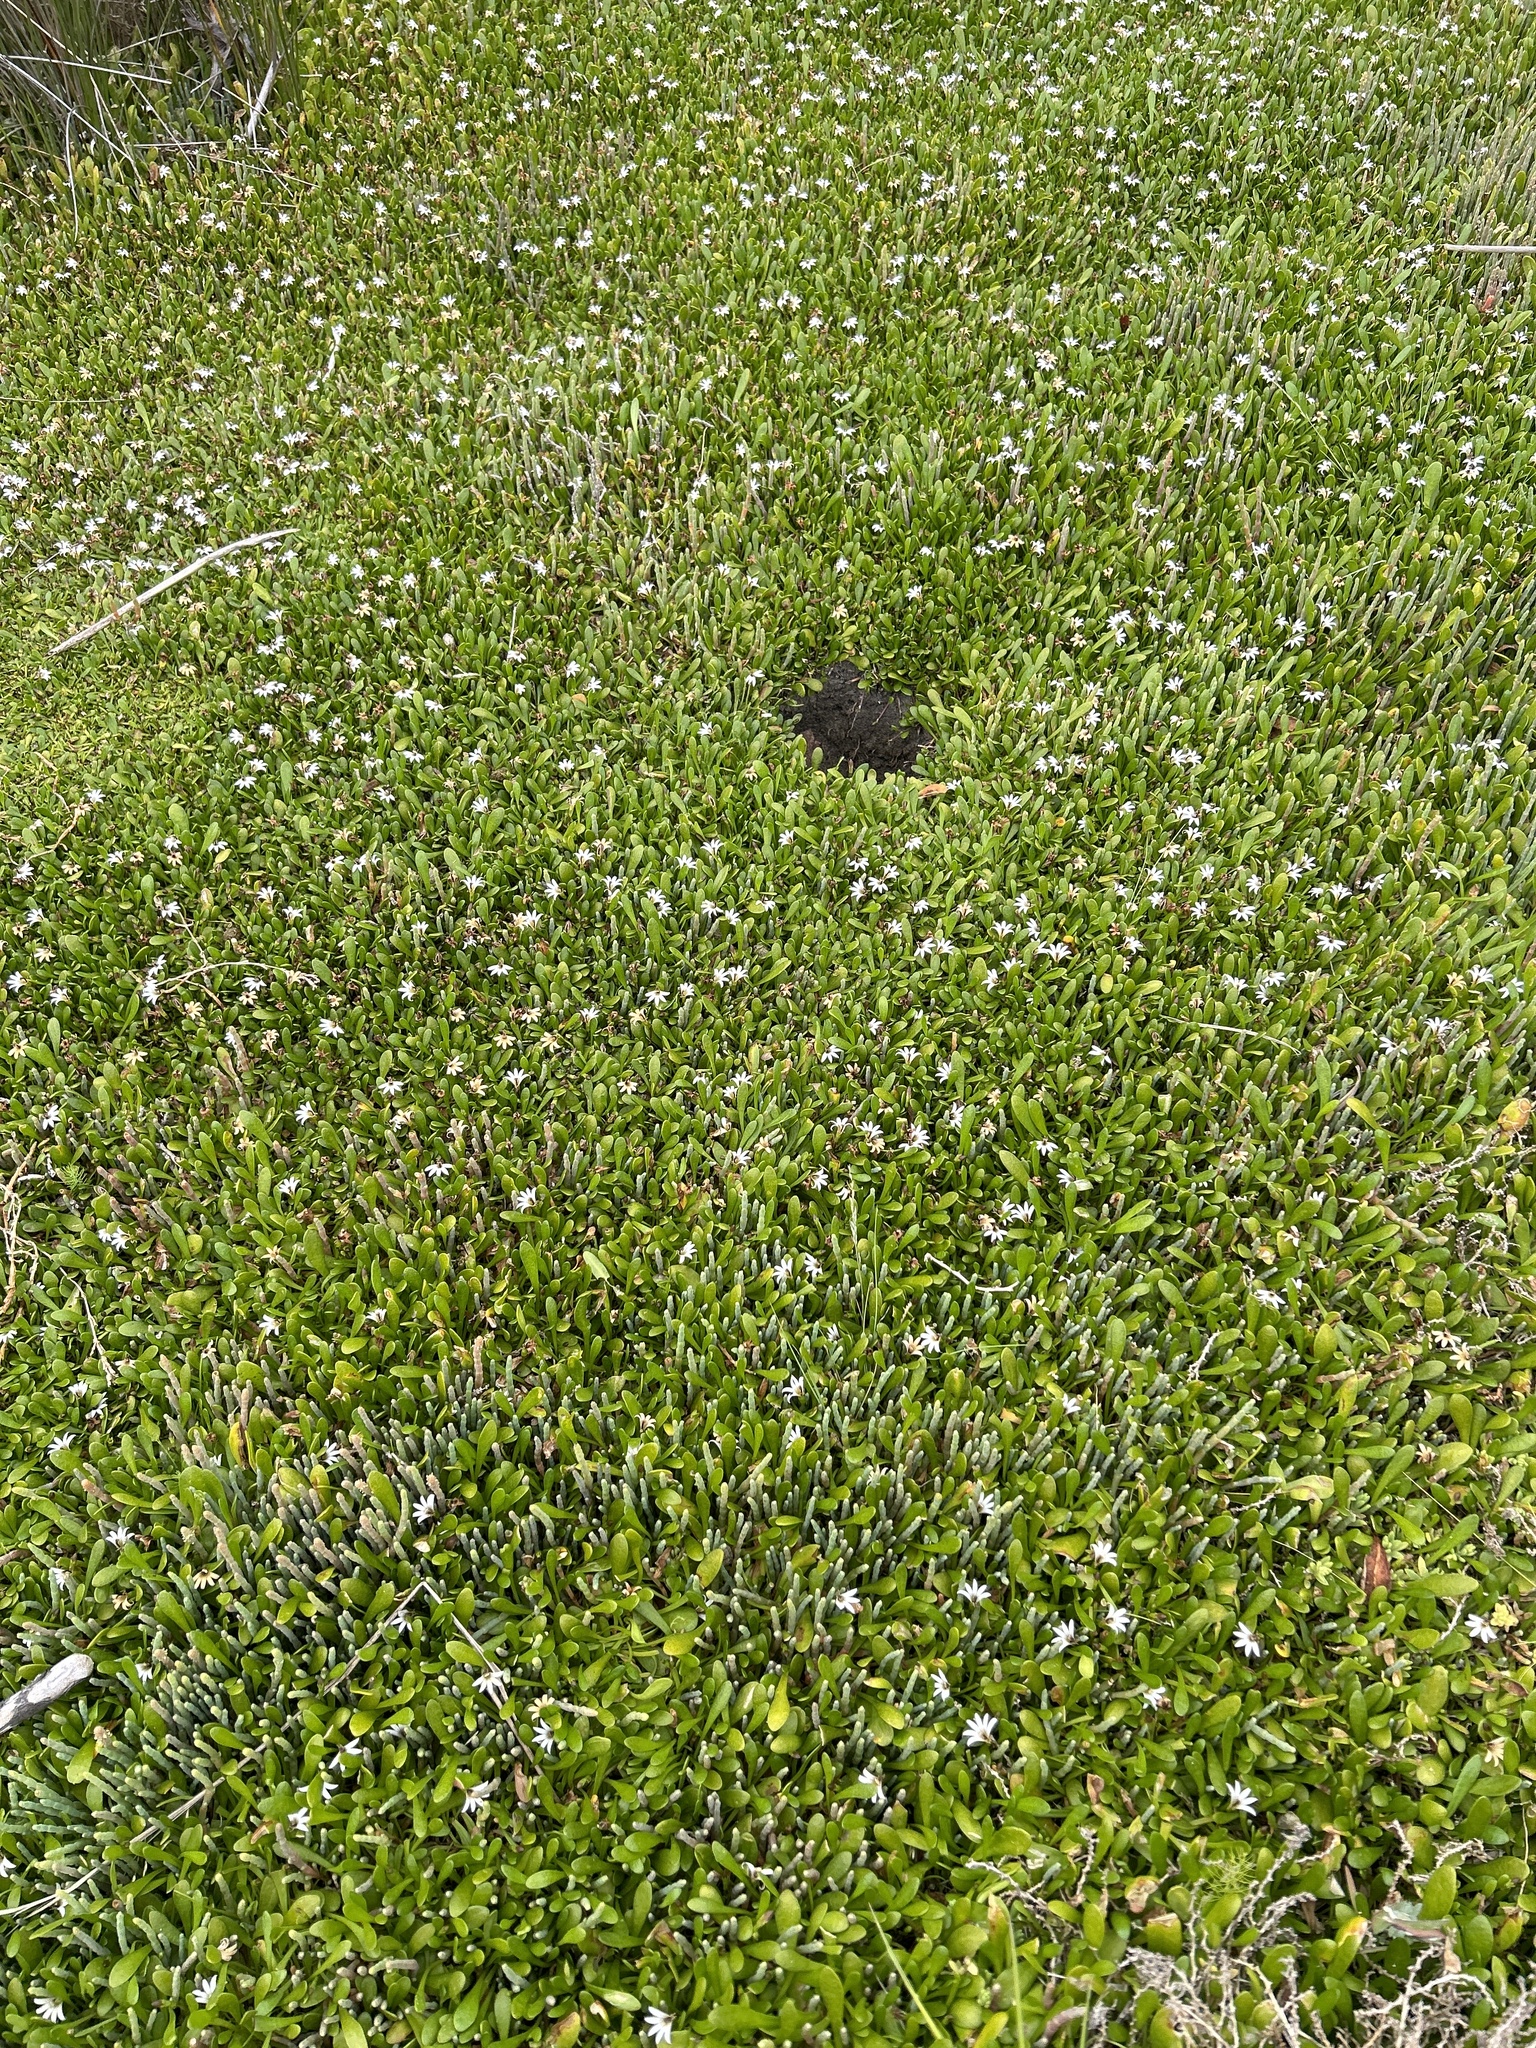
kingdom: Plantae
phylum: Tracheophyta
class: Magnoliopsida
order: Asterales
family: Goodeniaceae
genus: Goodenia
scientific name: Goodenia radicans
